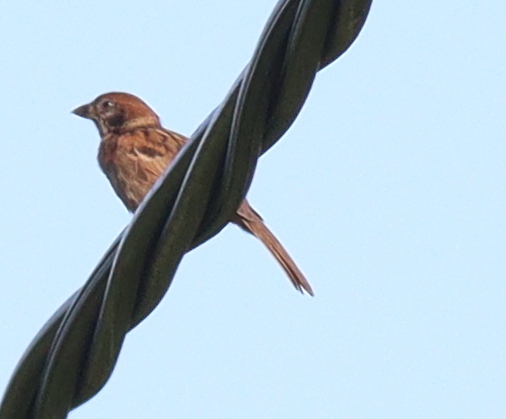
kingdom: Animalia
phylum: Chordata
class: Aves
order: Passeriformes
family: Passeridae
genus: Passer
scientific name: Passer montanus
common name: Eurasian tree sparrow
